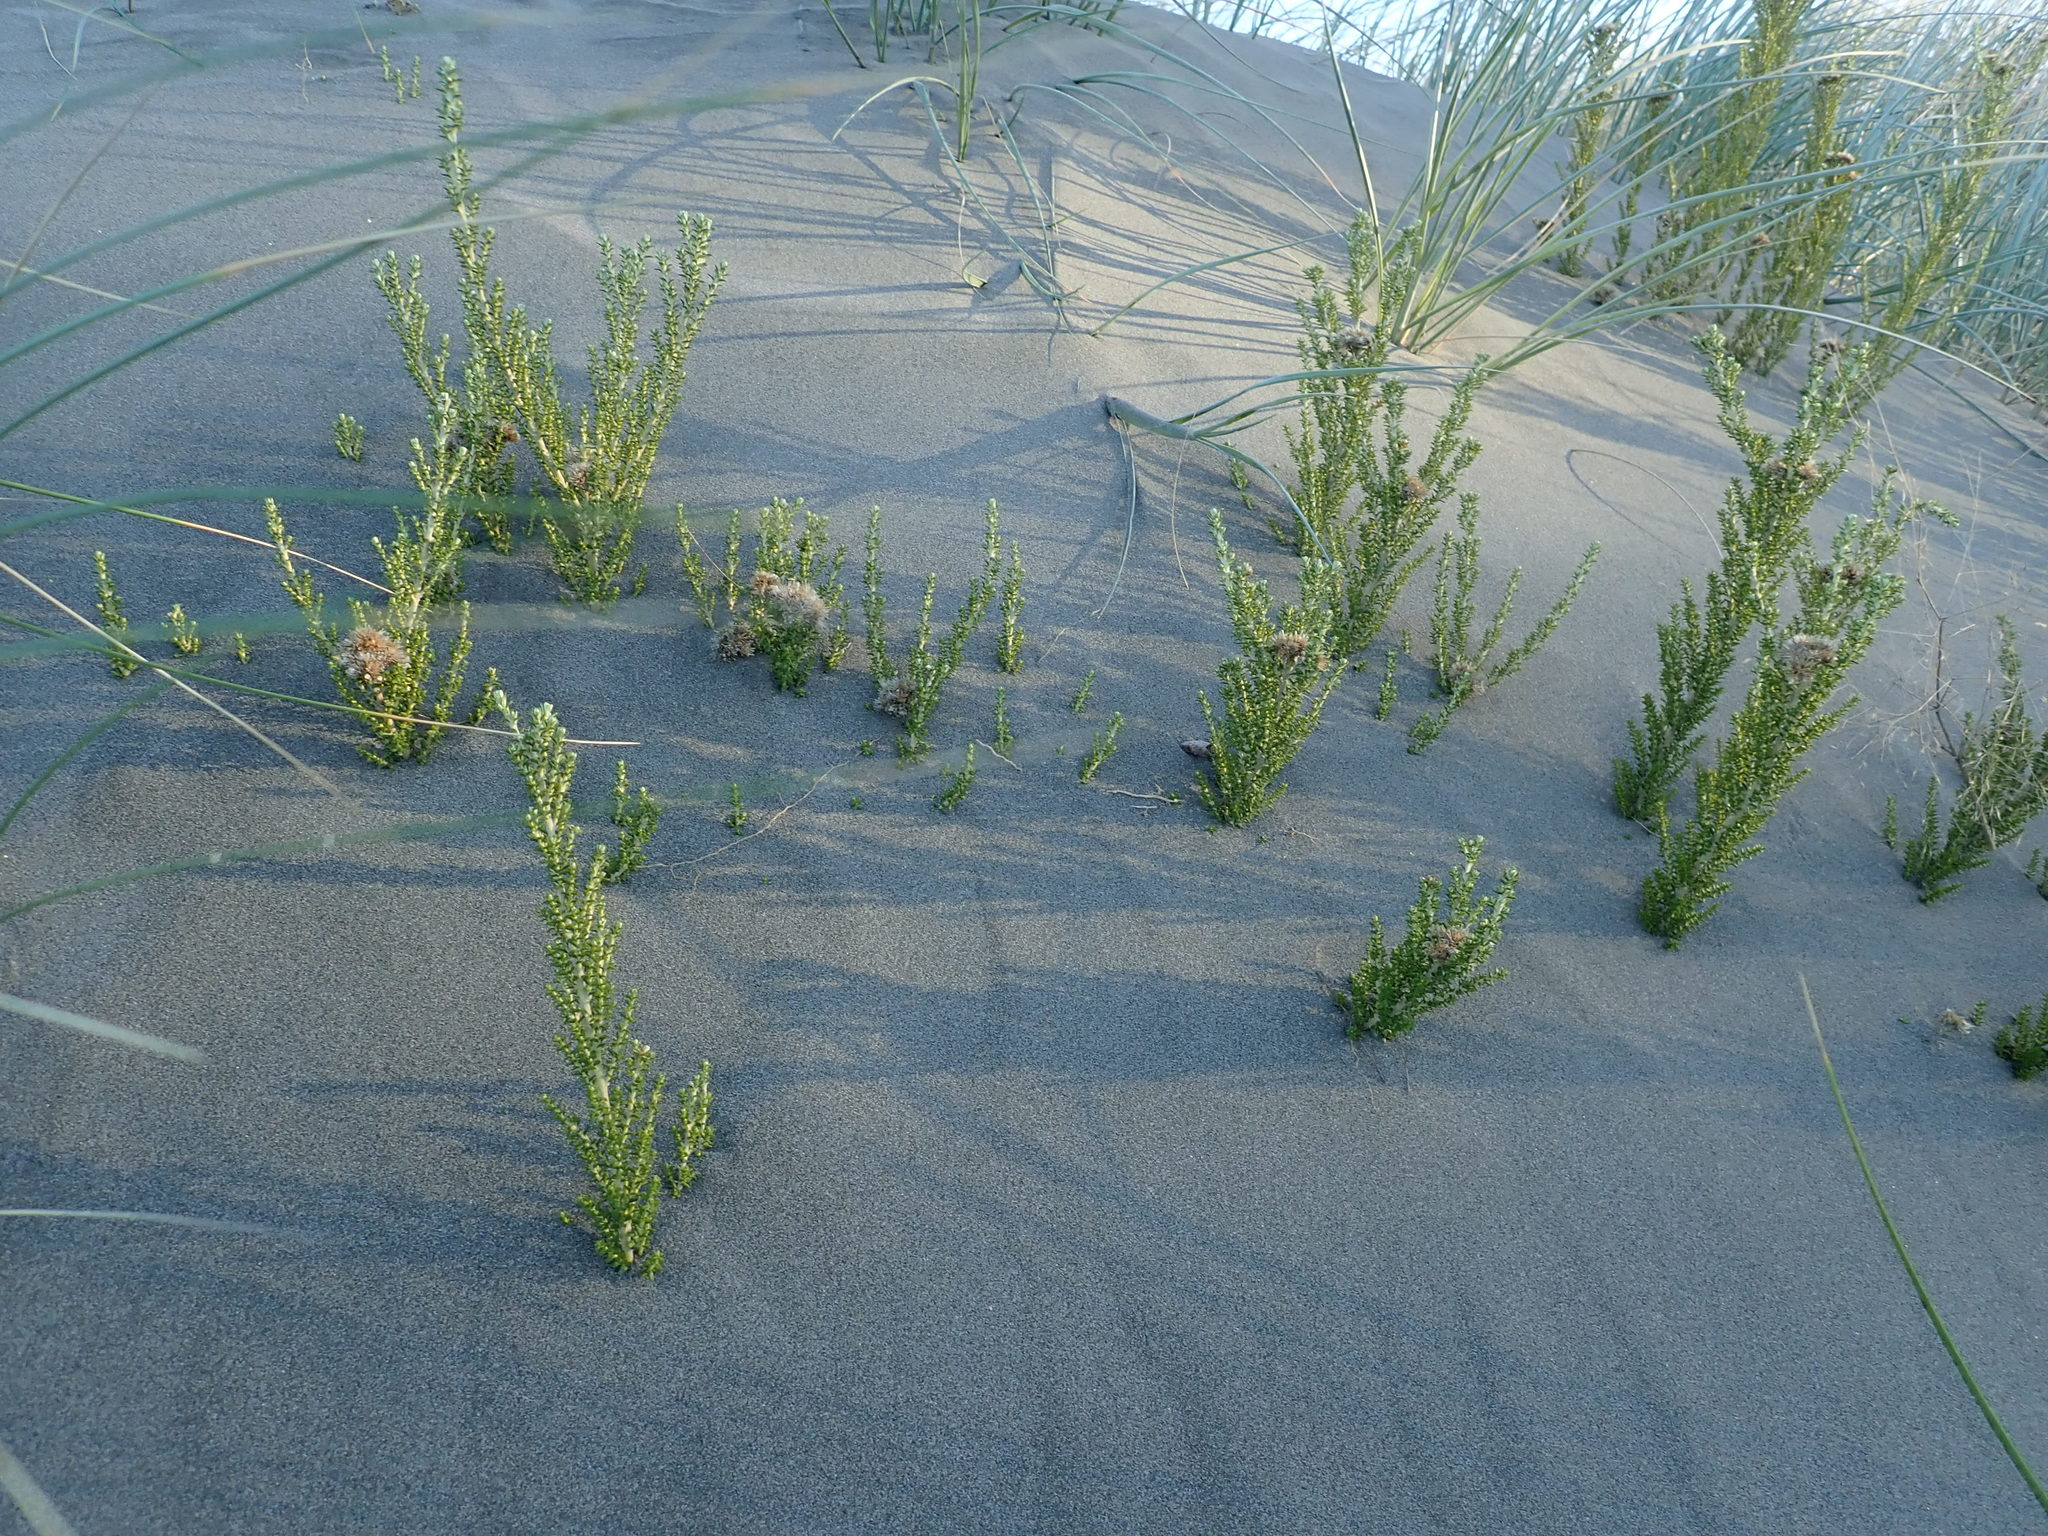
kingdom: Plantae
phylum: Tracheophyta
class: Magnoliopsida
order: Asterales
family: Asteraceae
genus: Ozothamnus
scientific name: Ozothamnus leptophyllus
